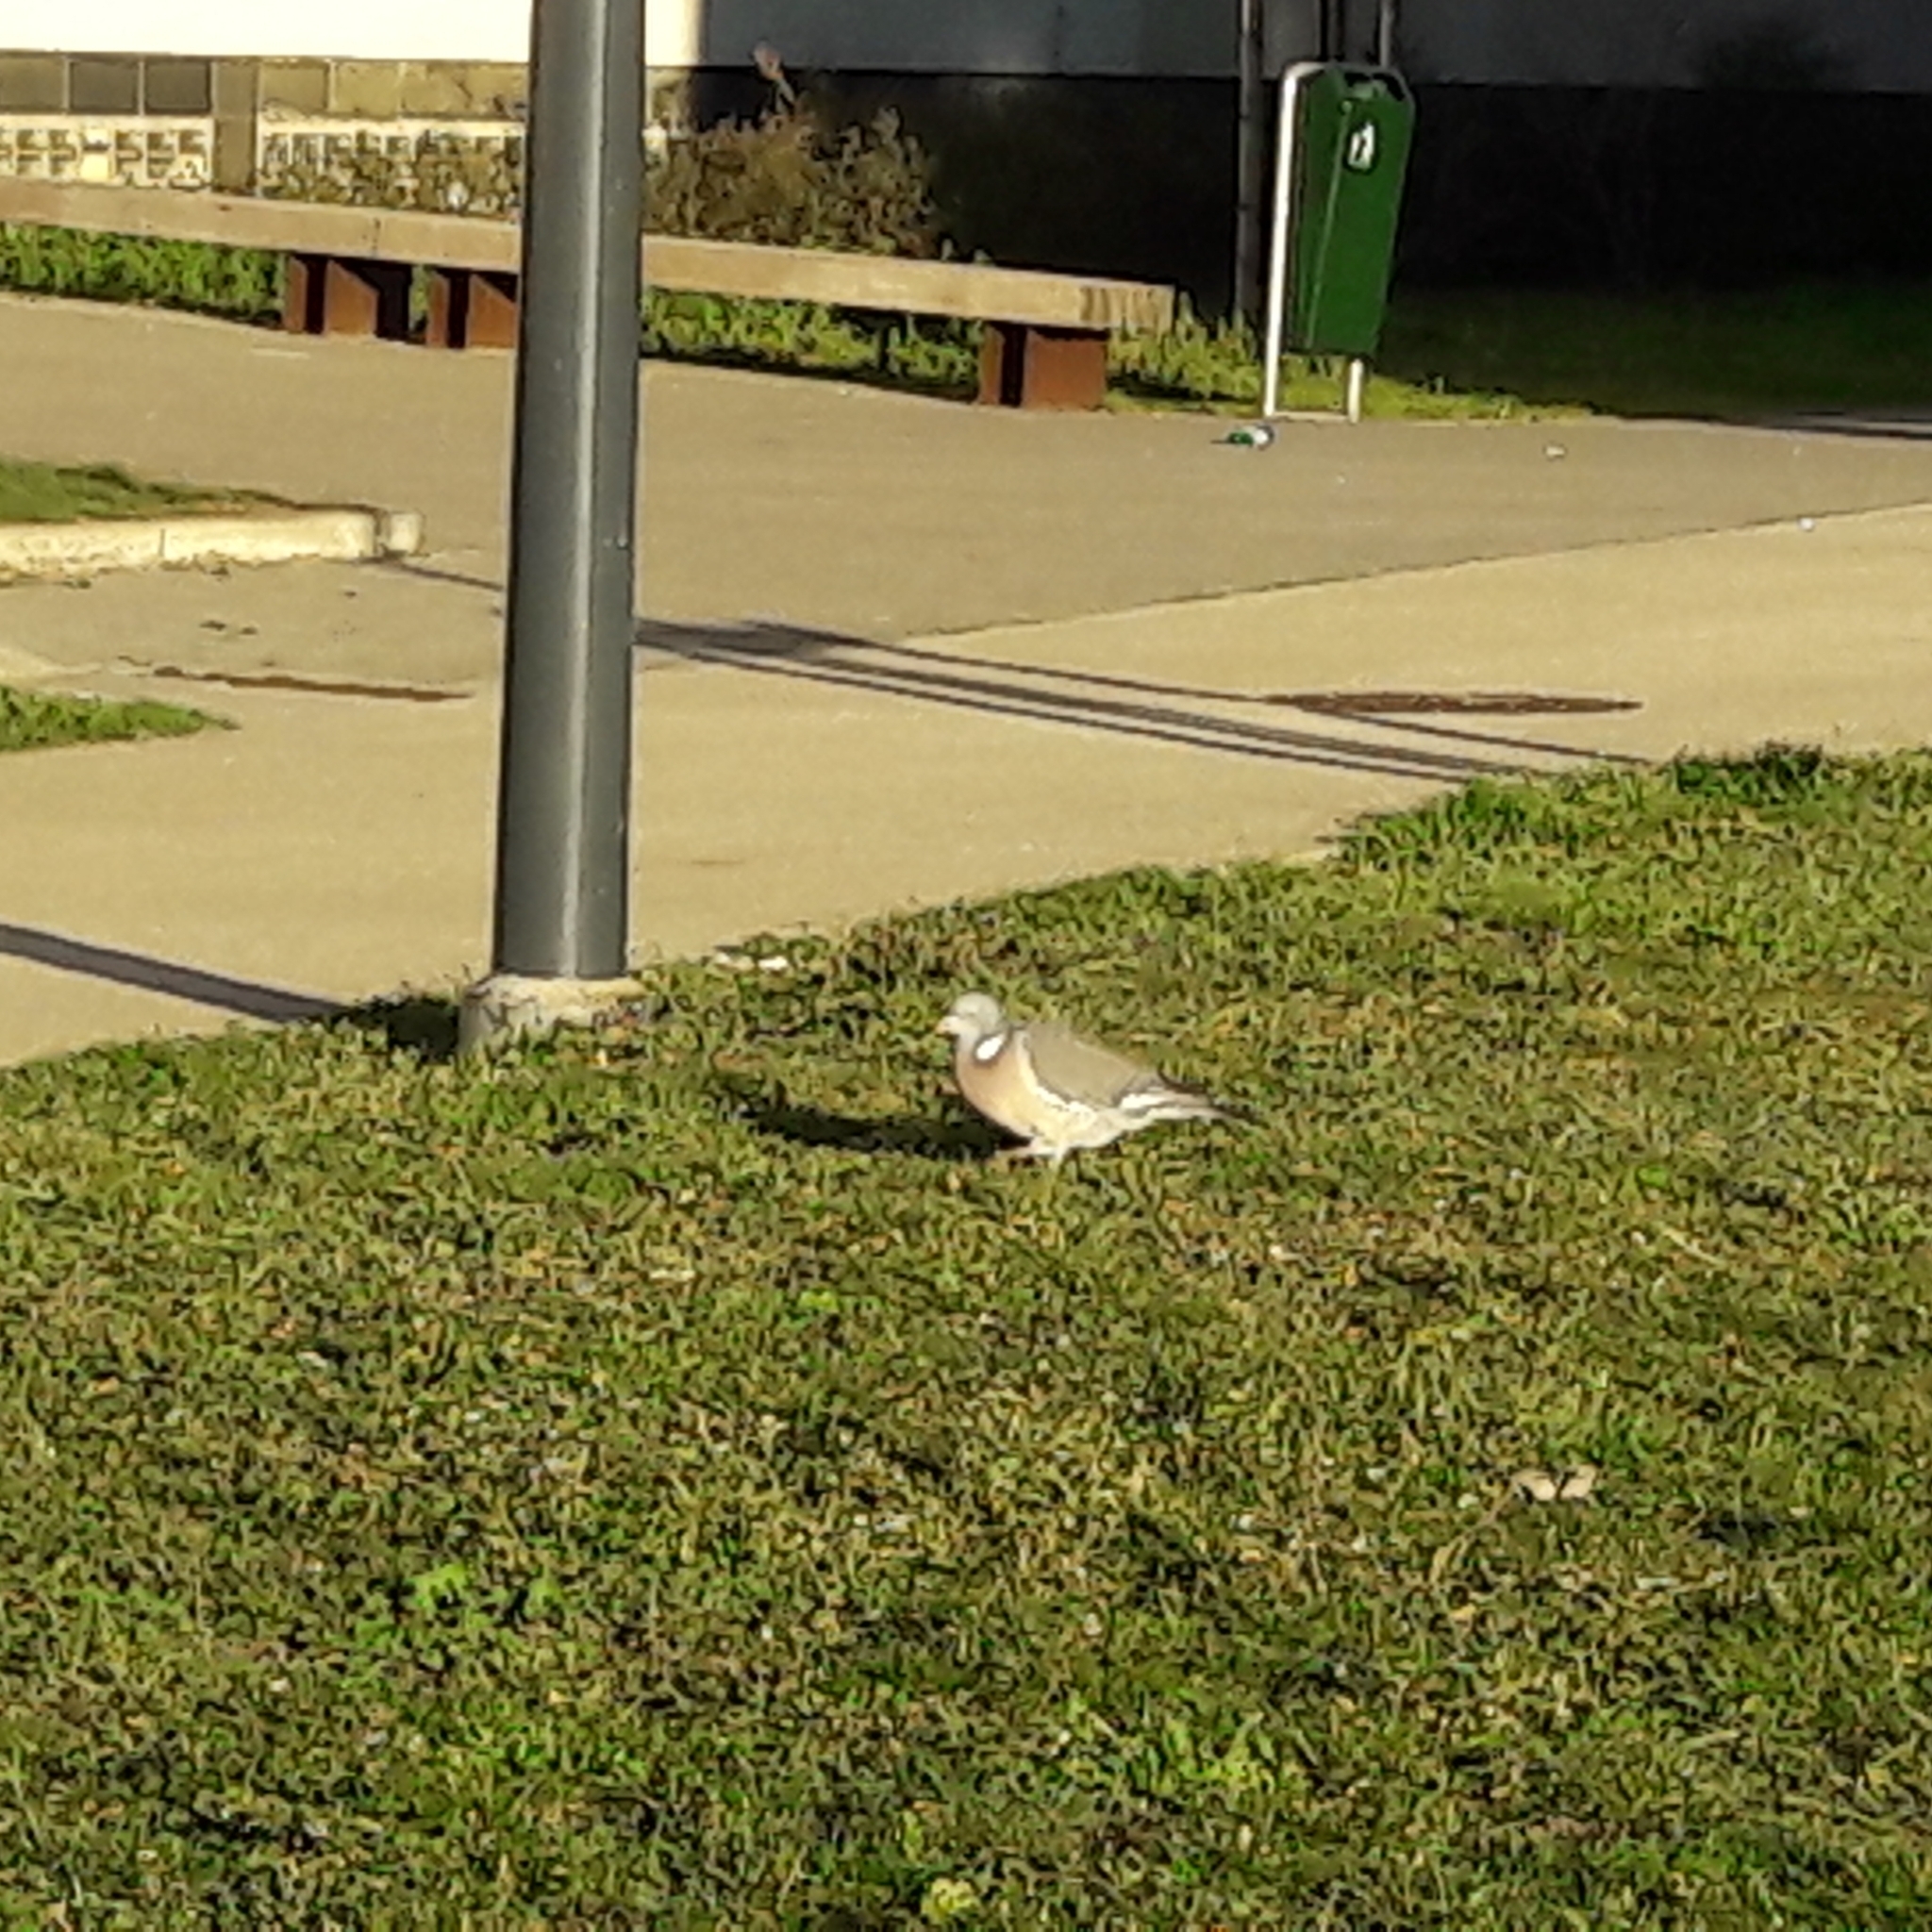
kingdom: Animalia
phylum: Chordata
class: Aves
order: Columbiformes
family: Columbidae
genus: Columba
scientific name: Columba palumbus
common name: Common wood pigeon
